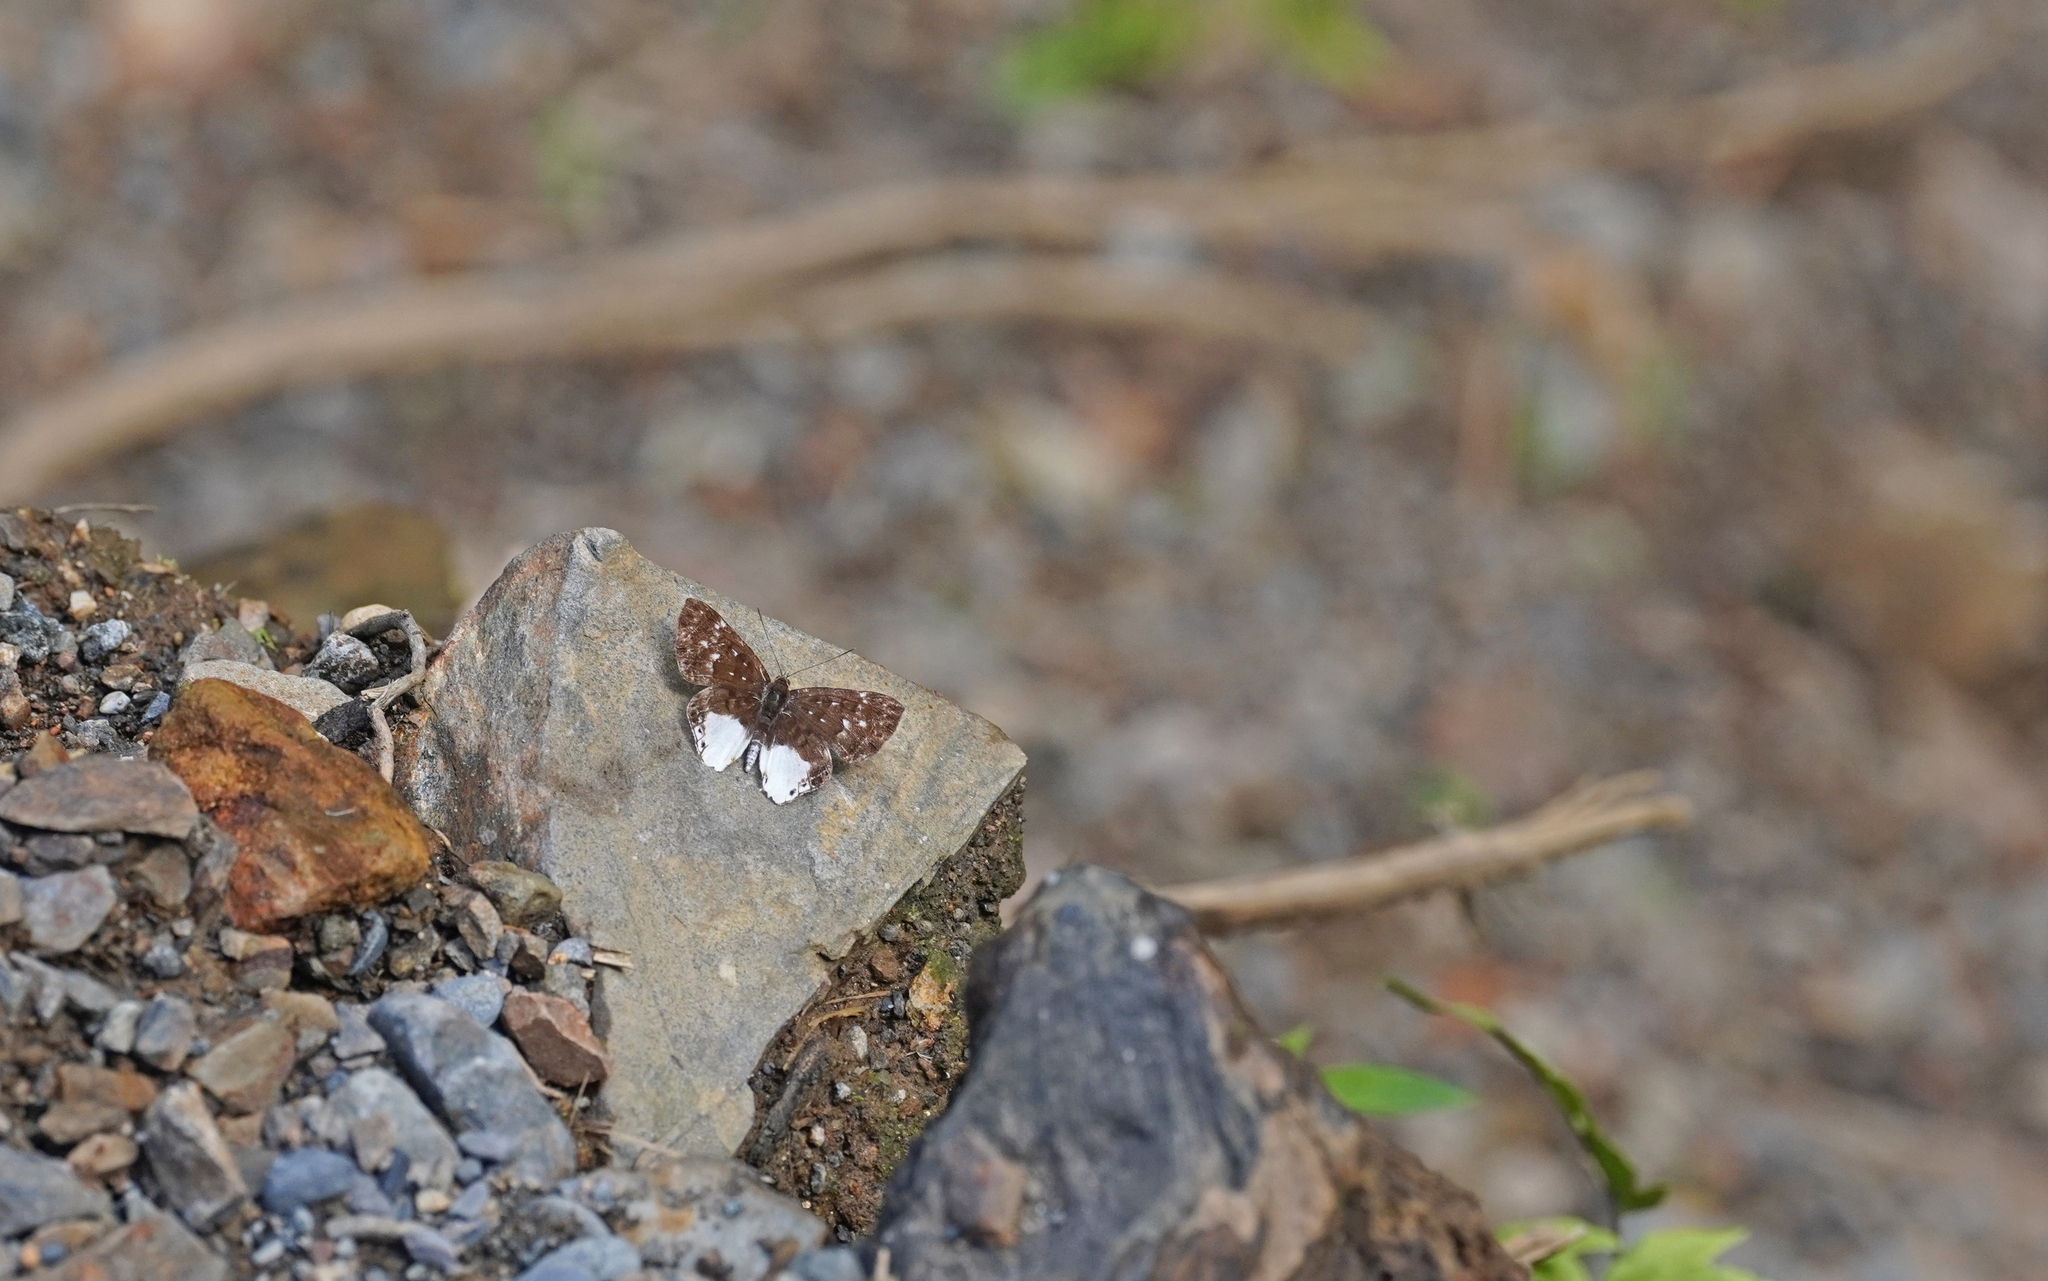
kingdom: Animalia
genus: Lemonias
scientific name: Lemonias zygia
